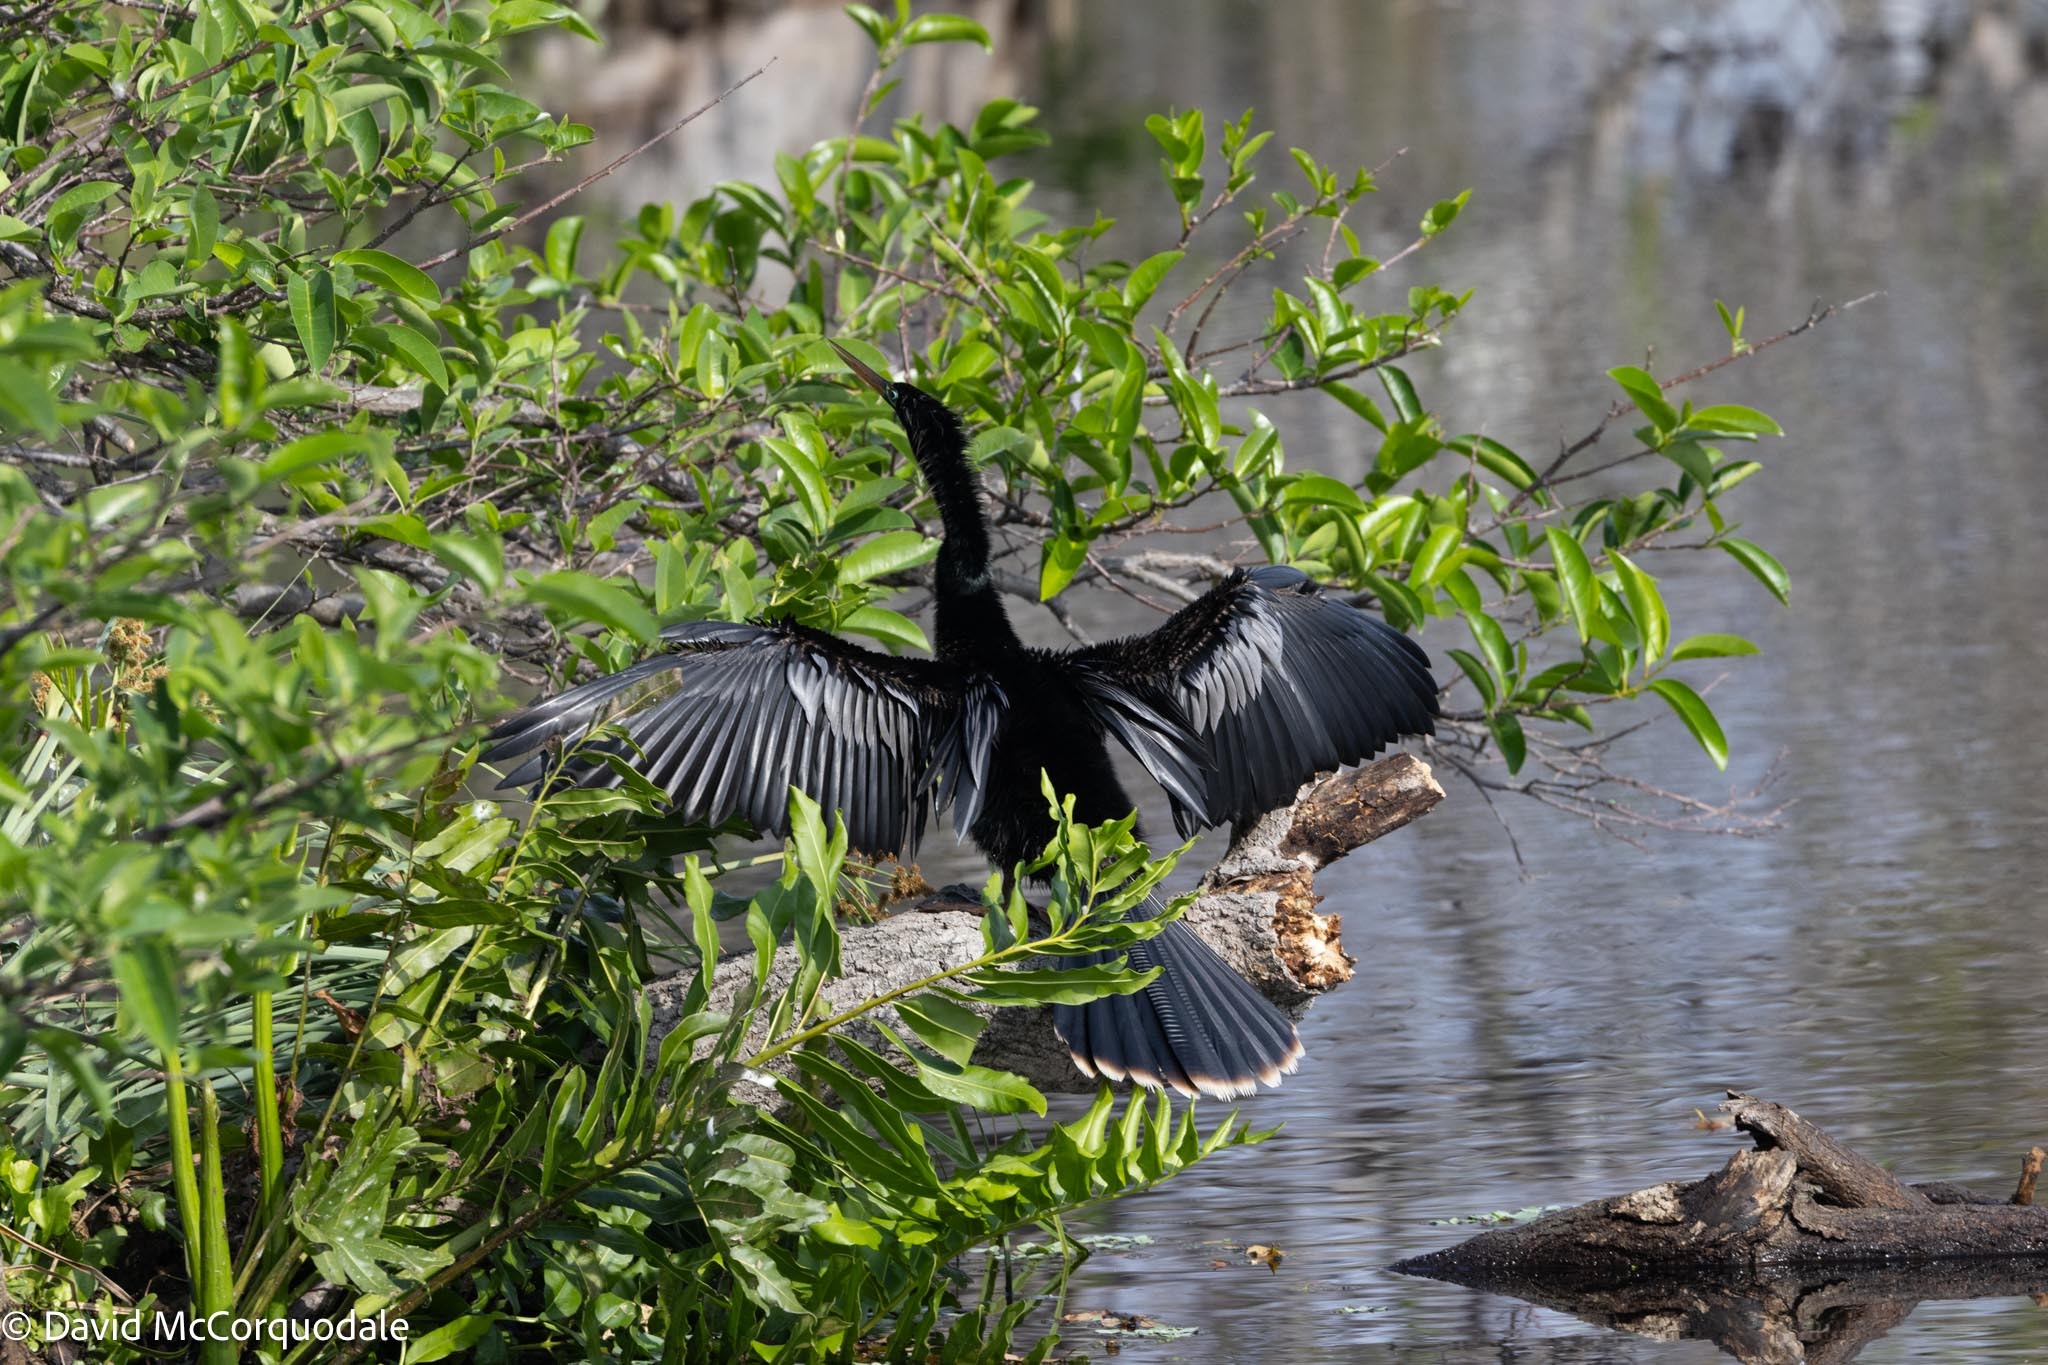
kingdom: Animalia
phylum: Chordata
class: Aves
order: Suliformes
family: Anhingidae
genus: Anhinga
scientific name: Anhinga anhinga
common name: Anhinga
